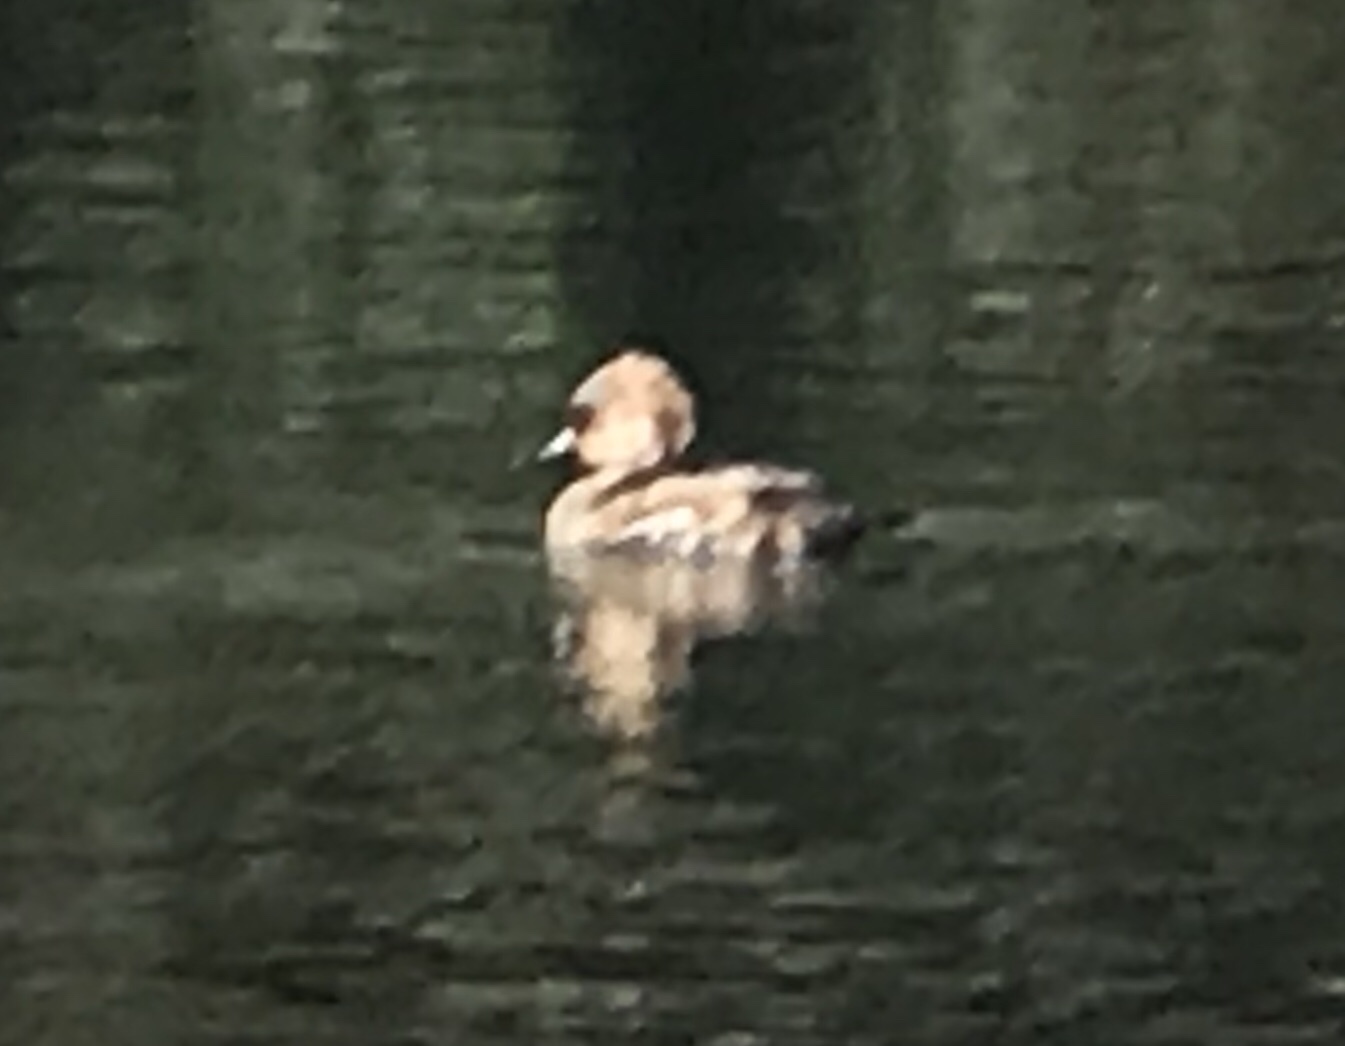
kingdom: Animalia
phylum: Chordata
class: Aves
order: Anseriformes
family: Anatidae
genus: Lophodytes
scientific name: Lophodytes cucullatus
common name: Hooded merganser
